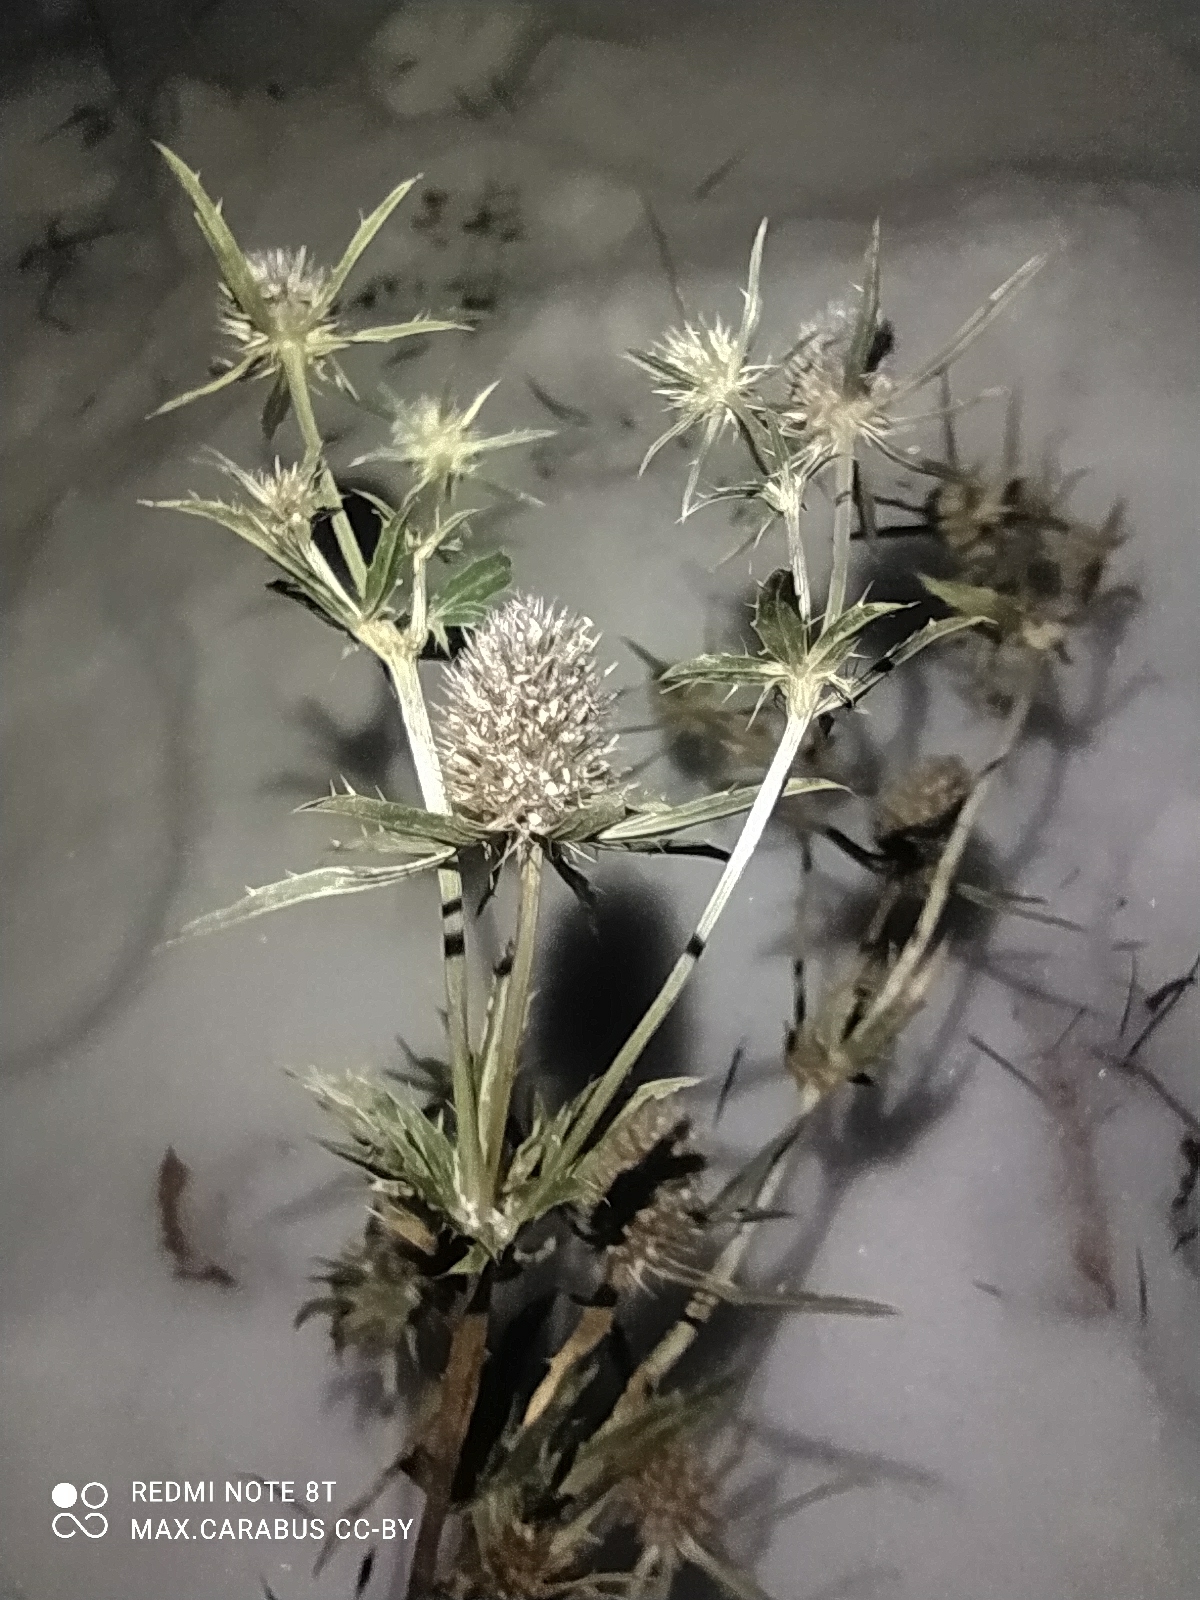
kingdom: Plantae
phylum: Tracheophyta
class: Magnoliopsida
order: Apiales
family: Apiaceae
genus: Eryngium
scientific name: Eryngium planum
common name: Blue eryngo
